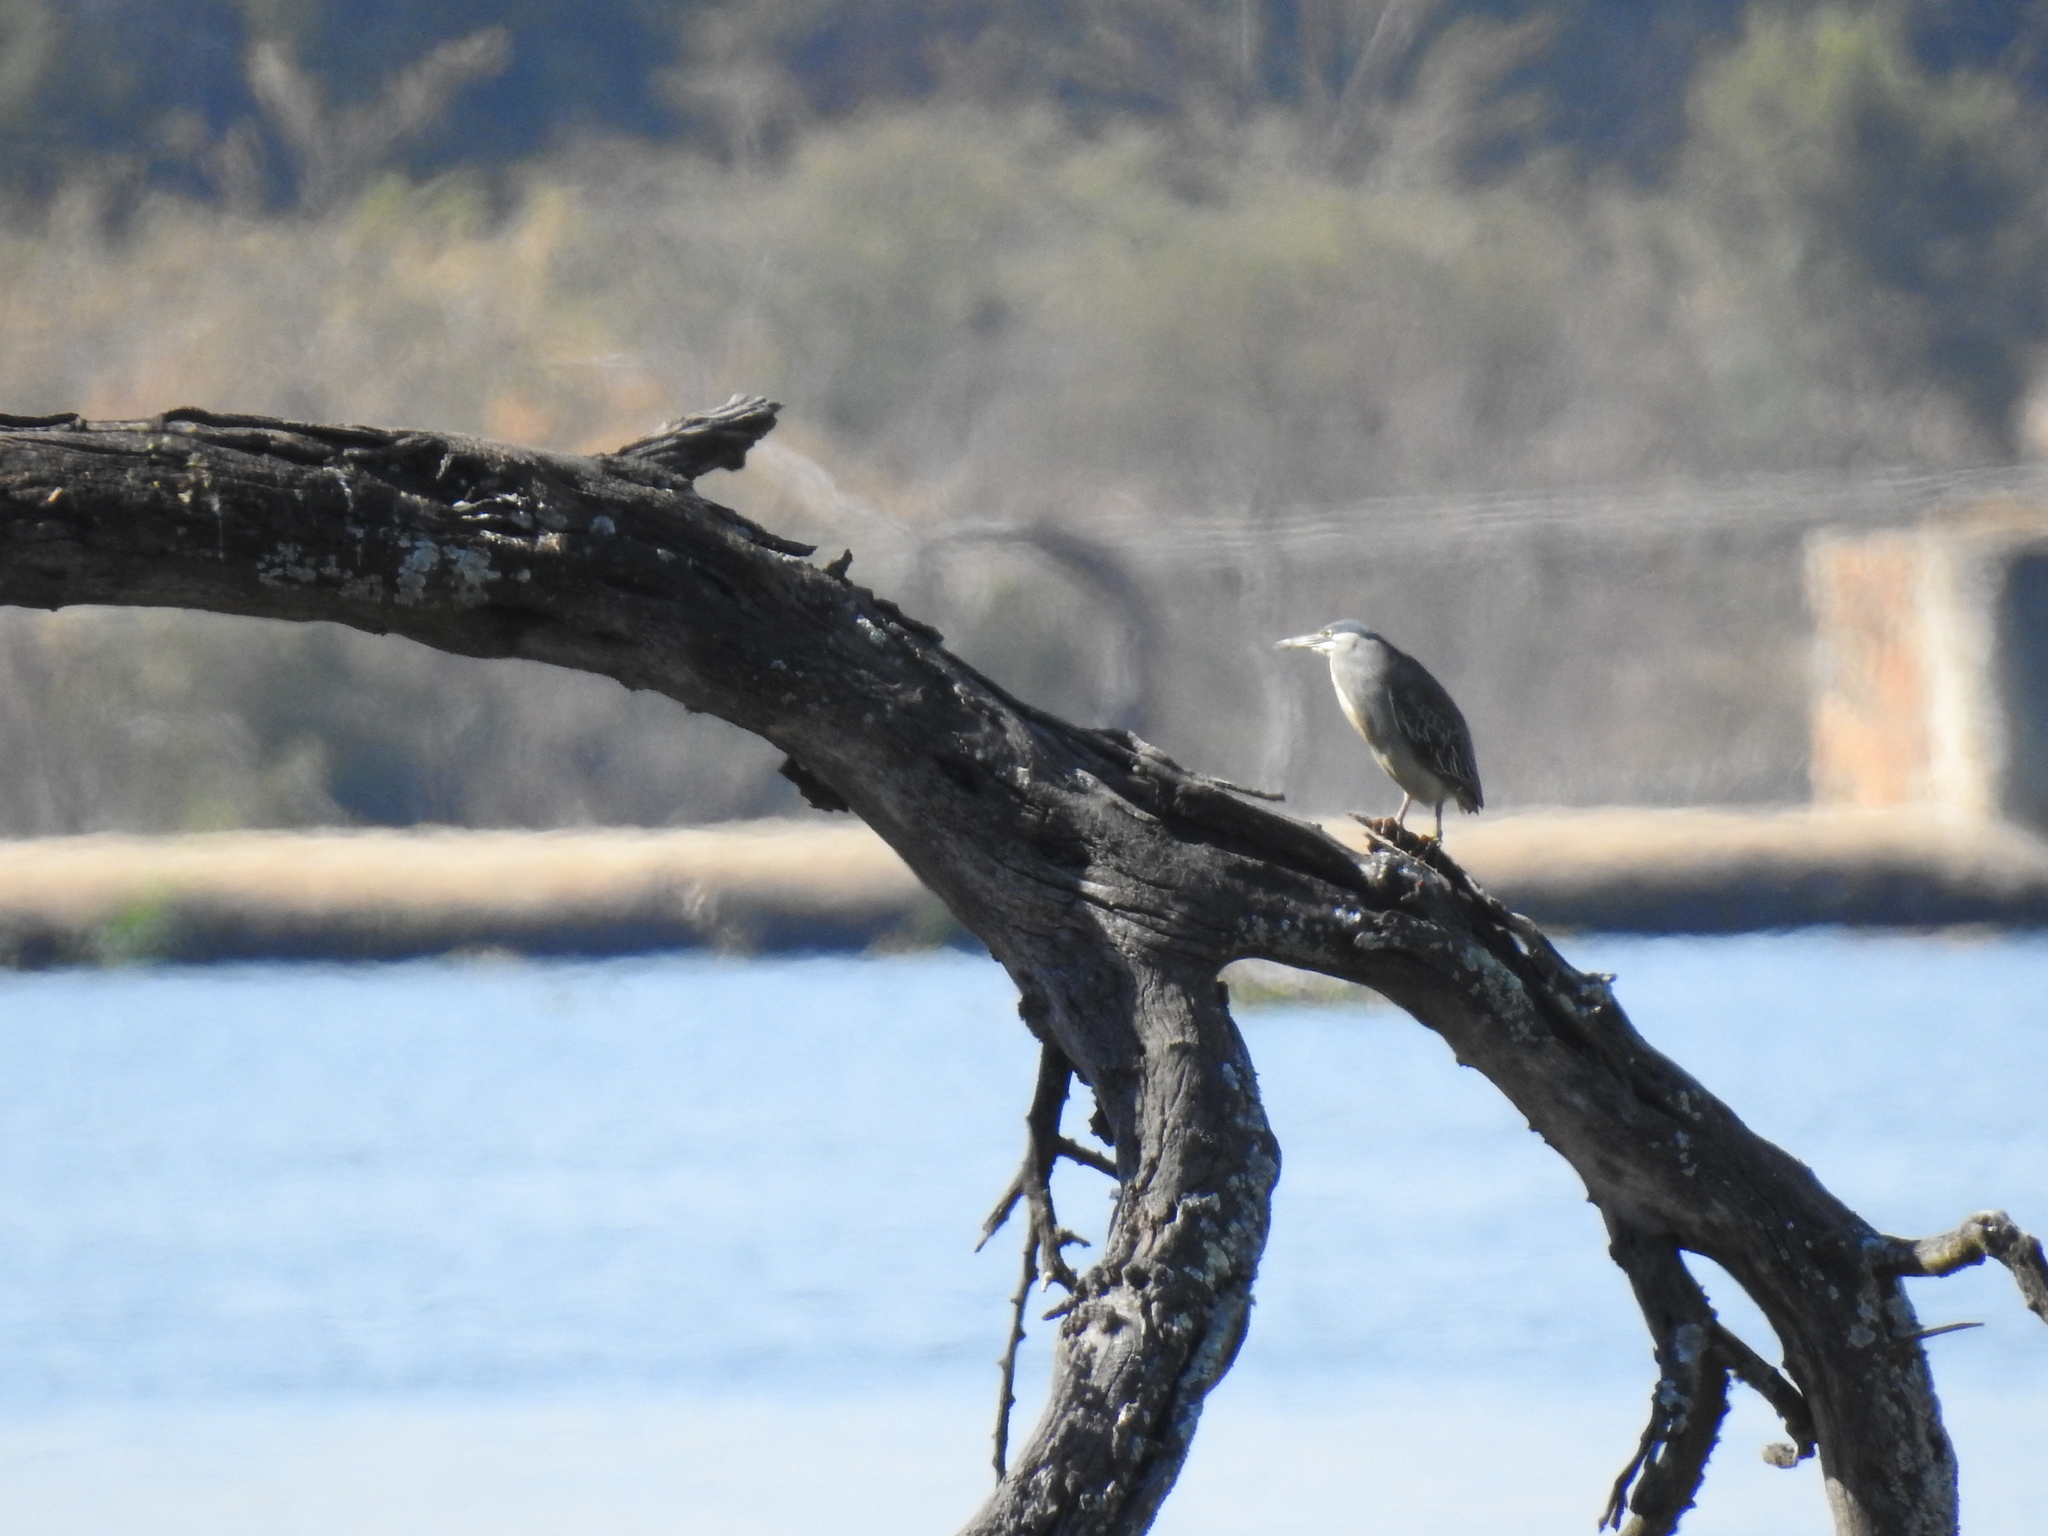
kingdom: Animalia
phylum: Chordata
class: Aves
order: Pelecaniformes
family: Ardeidae
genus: Butorides
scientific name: Butorides striata
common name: Striated heron
